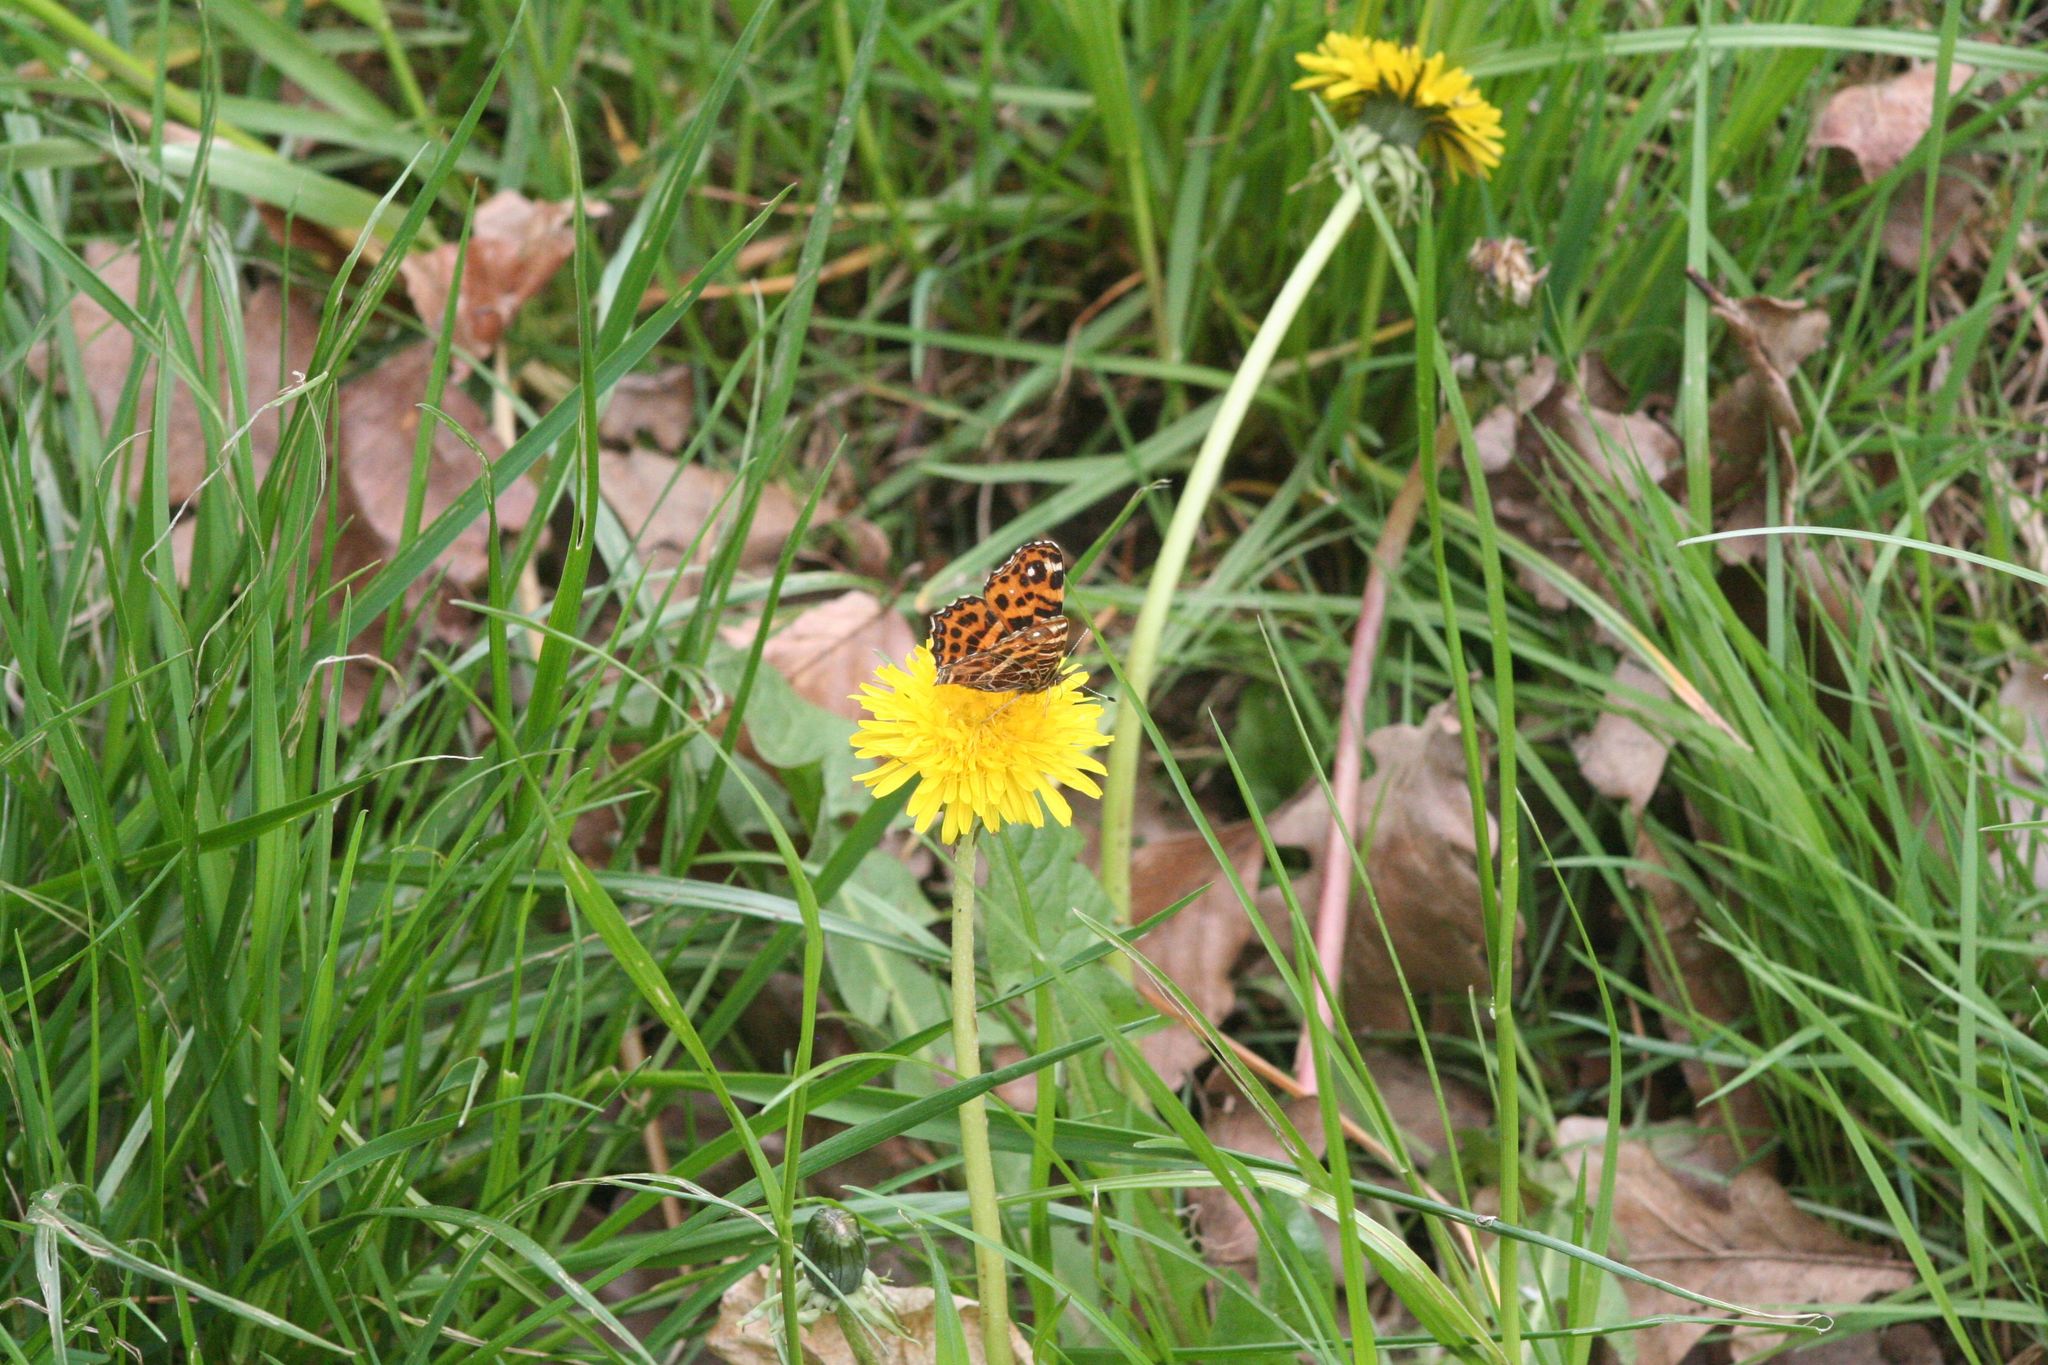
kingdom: Animalia
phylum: Arthropoda
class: Insecta
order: Lepidoptera
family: Nymphalidae
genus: Araschnia
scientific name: Araschnia levana
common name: Map butterfly
